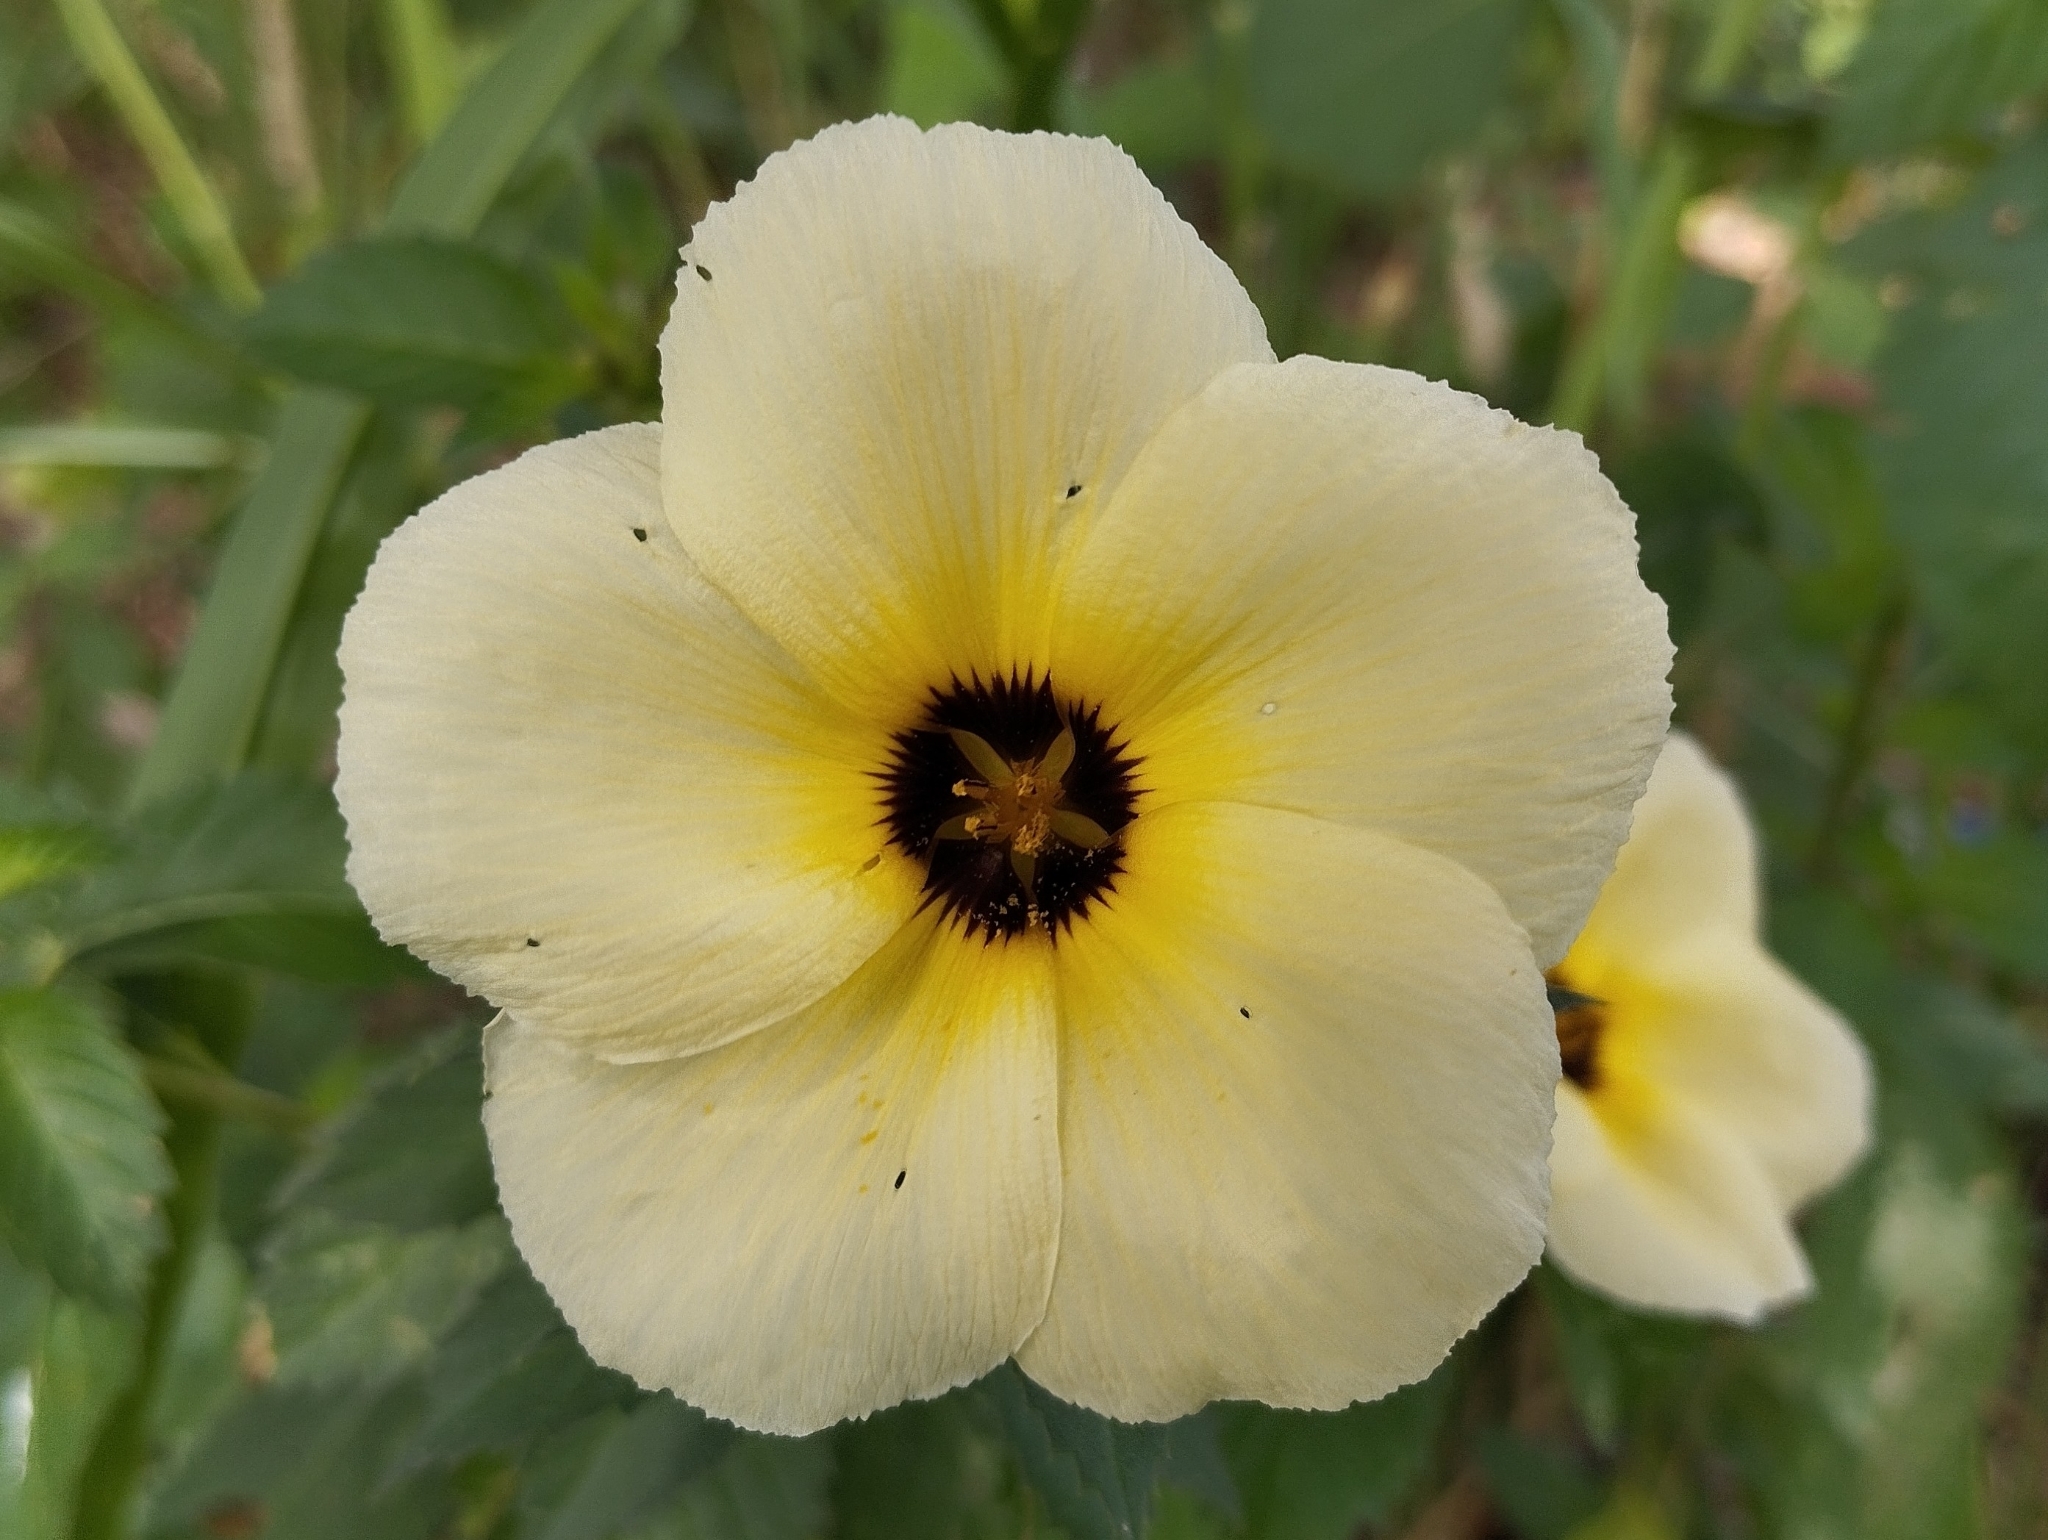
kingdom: Plantae
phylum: Tracheophyta
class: Magnoliopsida
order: Malpighiales
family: Turneraceae
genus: Turnera
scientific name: Turnera subulata
